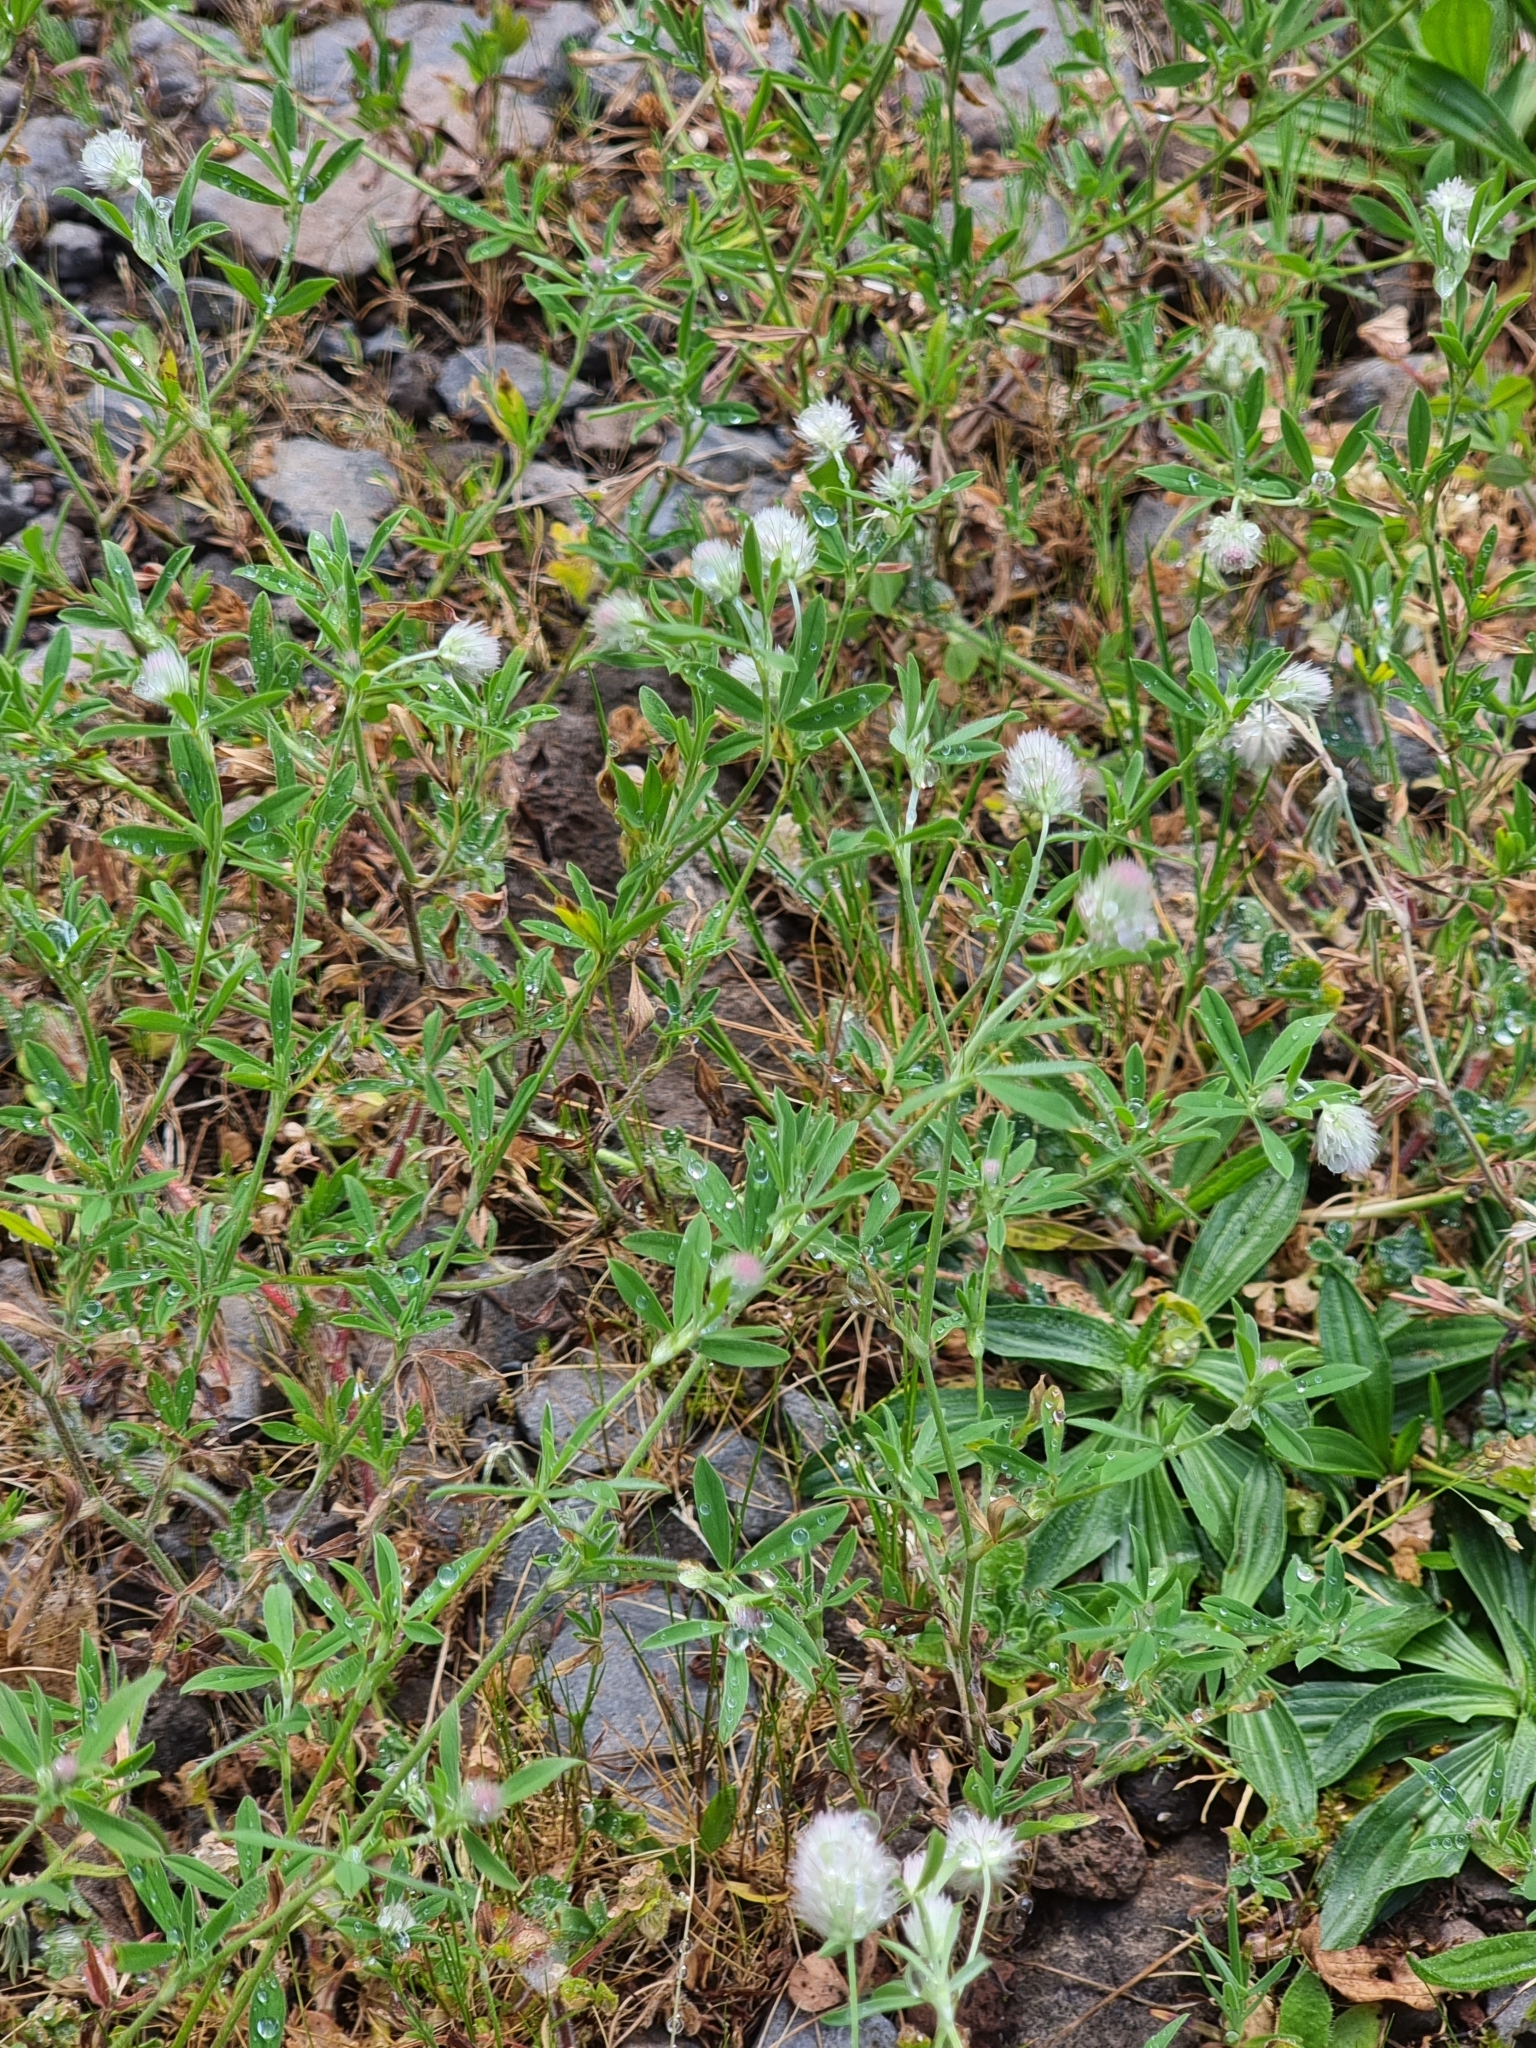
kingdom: Plantae
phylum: Tracheophyta
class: Magnoliopsida
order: Fabales
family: Fabaceae
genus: Trifolium
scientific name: Trifolium arvense
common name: Hare's-foot clover
